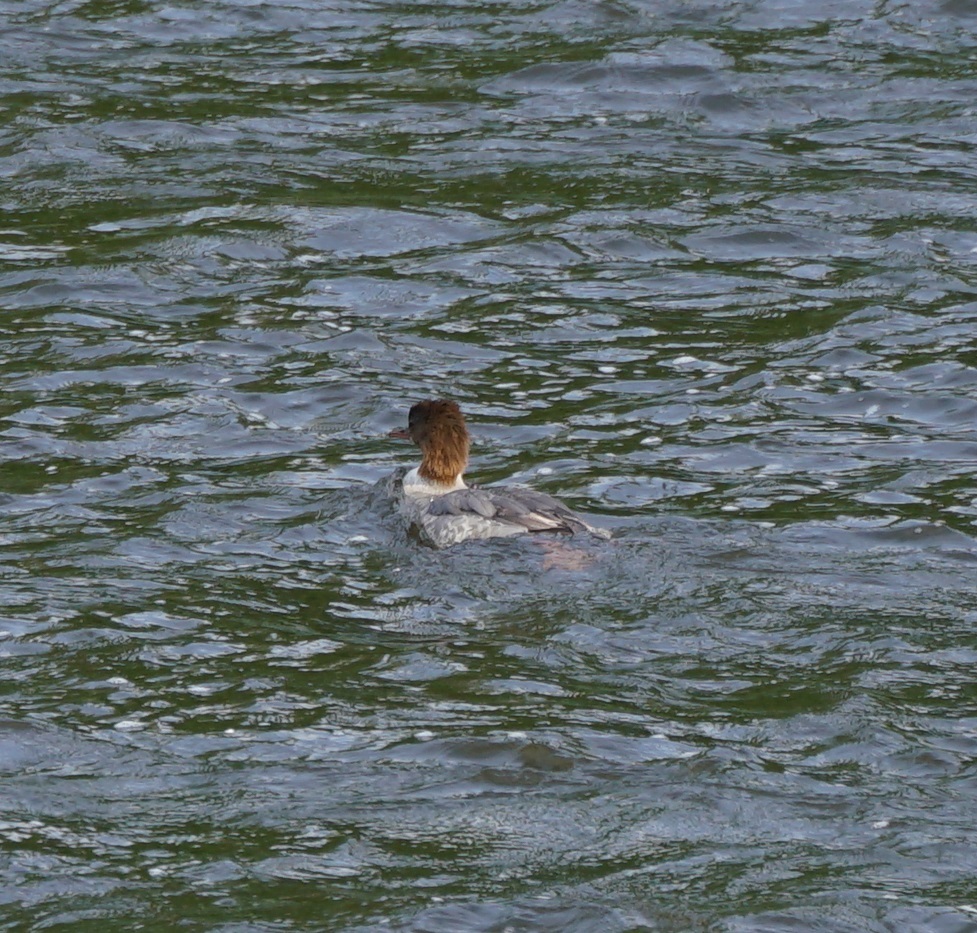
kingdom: Animalia
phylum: Chordata
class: Aves
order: Anseriformes
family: Anatidae
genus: Mergus
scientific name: Mergus merganser
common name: Common merganser
